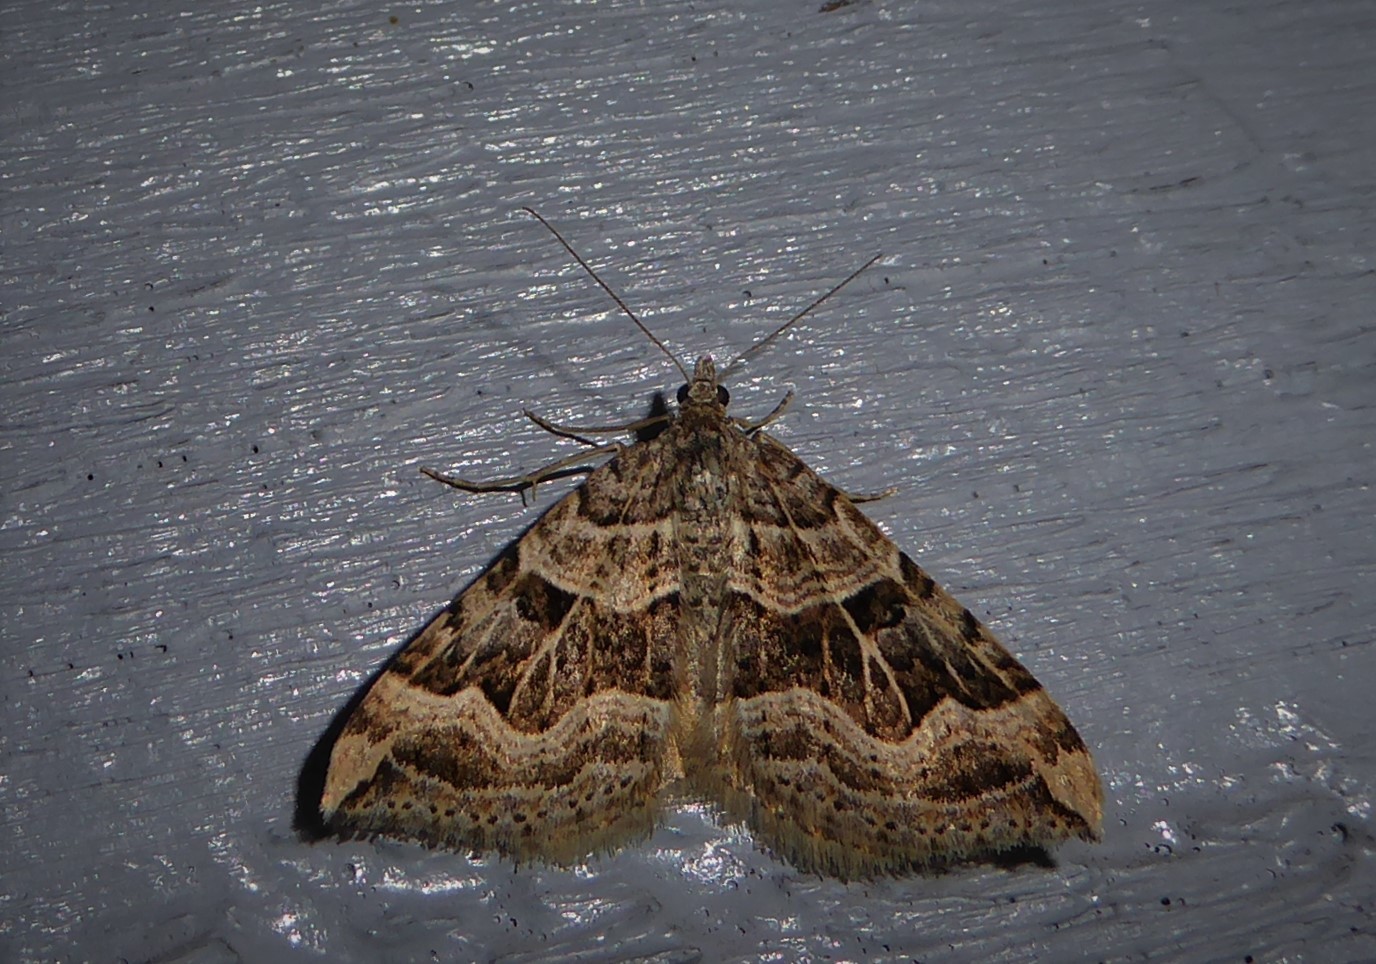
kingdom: Animalia
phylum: Arthropoda
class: Insecta
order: Lepidoptera
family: Geometridae
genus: Xanthorhoe
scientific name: Xanthorhoe semifissata
